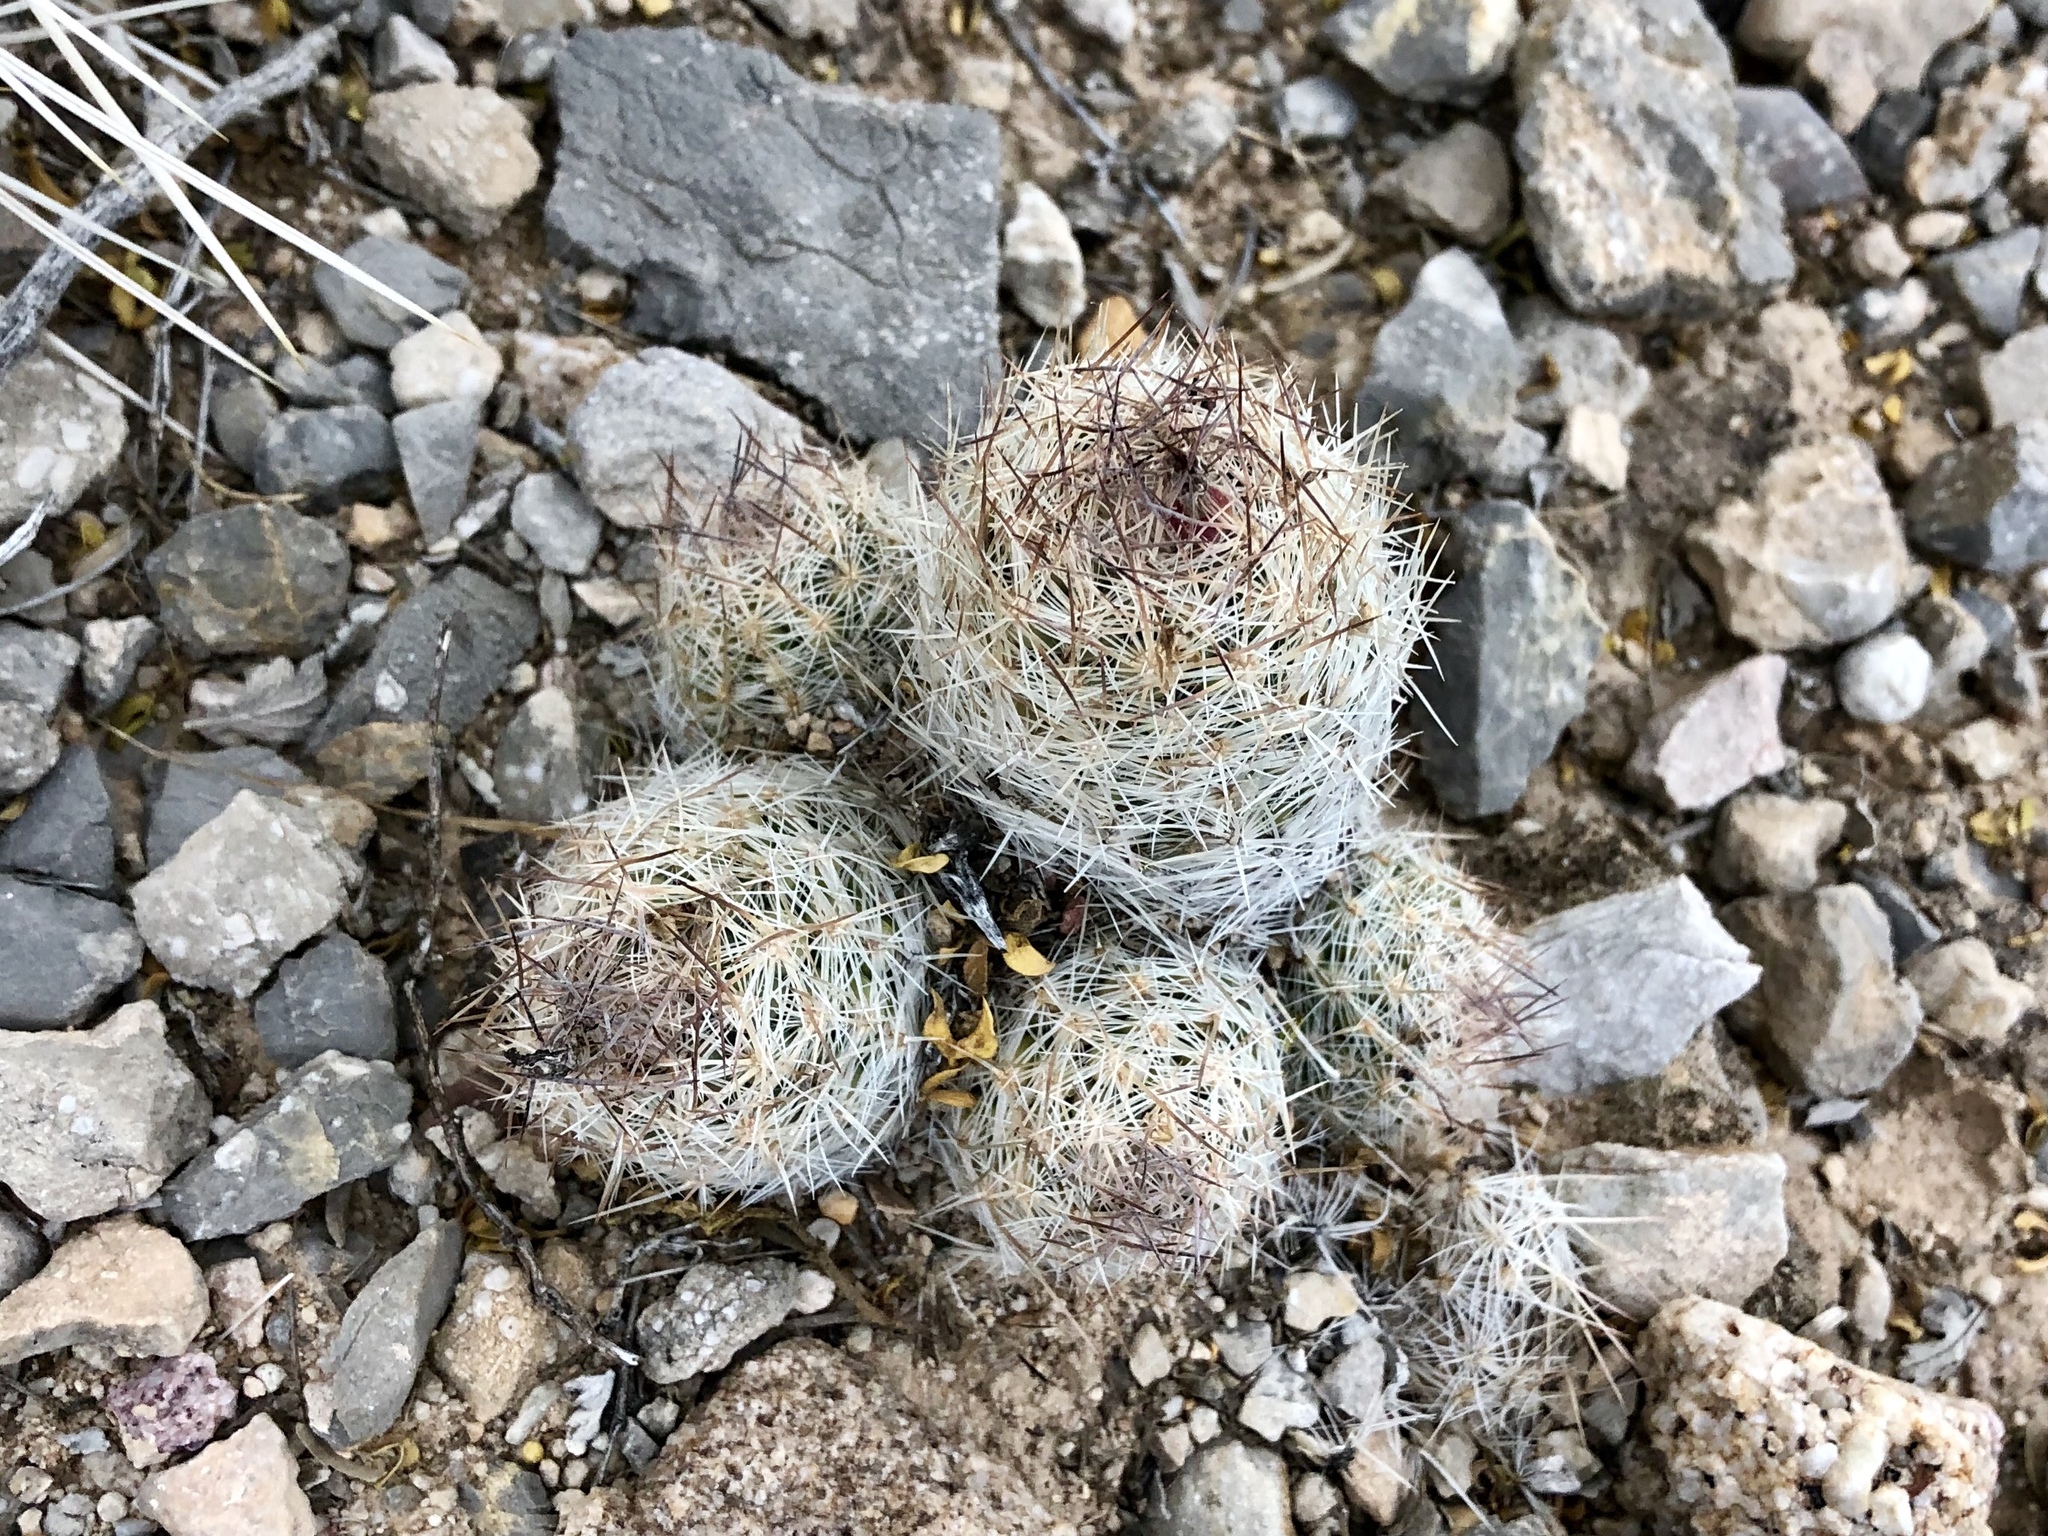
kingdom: Plantae
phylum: Tracheophyta
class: Magnoliopsida
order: Caryophyllales
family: Cactaceae
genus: Pelecyphora
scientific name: Pelecyphora tuberculosa
